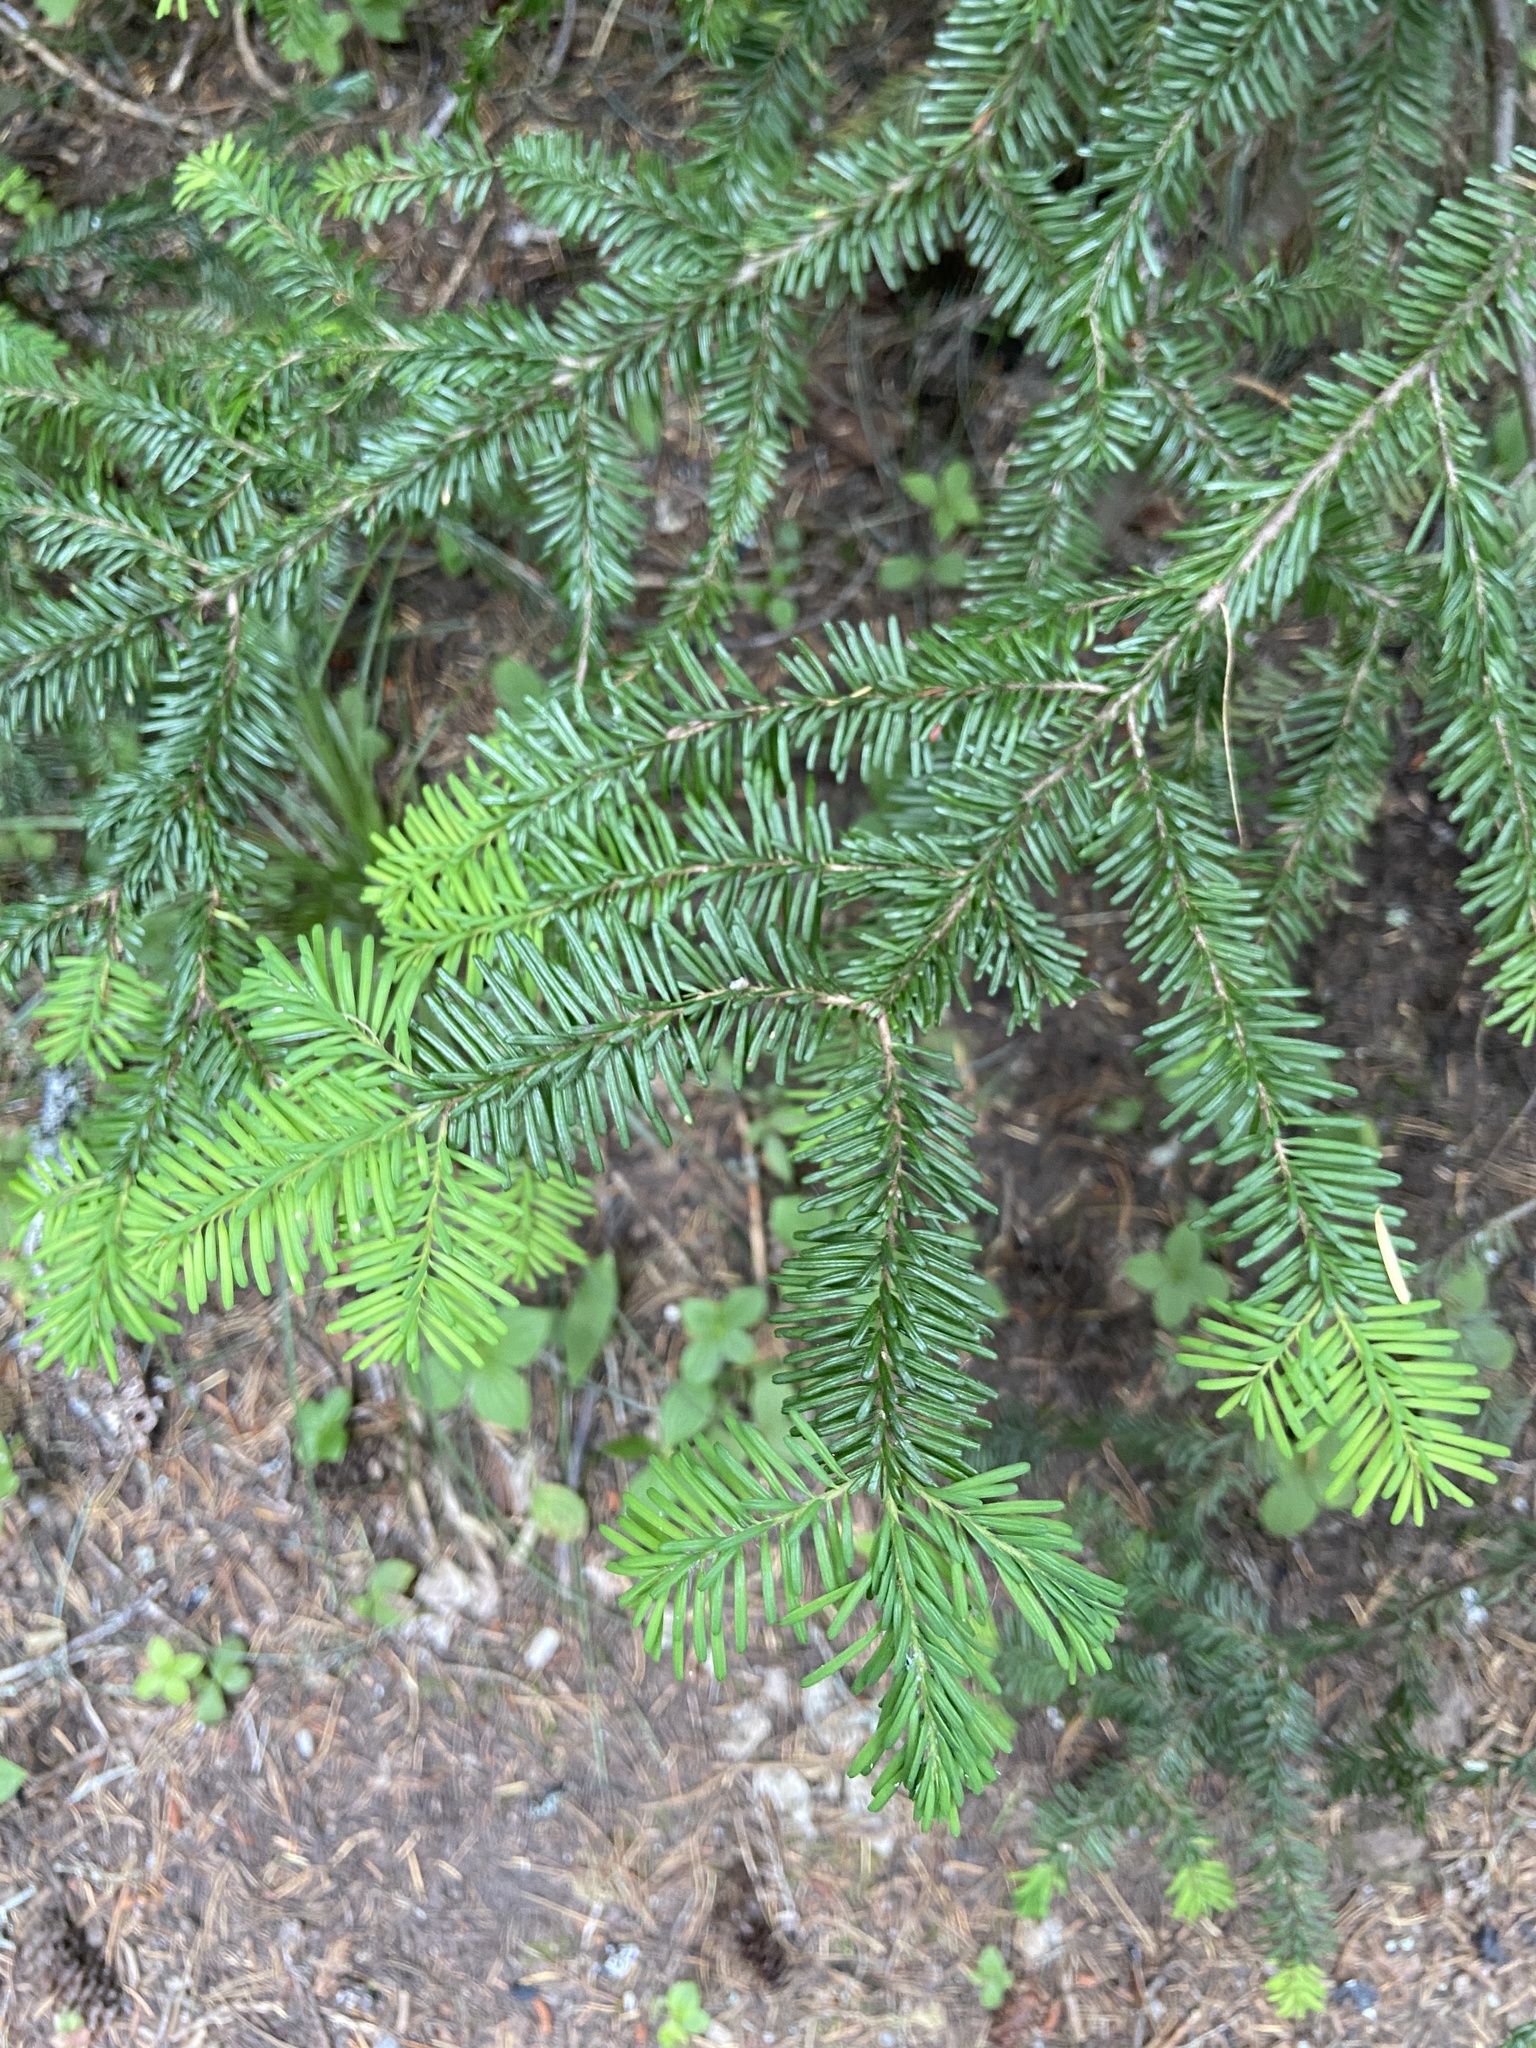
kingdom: Plantae
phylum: Tracheophyta
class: Pinopsida
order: Pinales
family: Pinaceae
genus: Abies
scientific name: Abies amabilis
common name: Pacific silver fir
